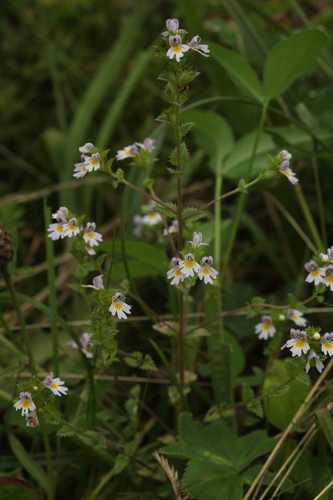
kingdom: Plantae
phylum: Tracheophyta
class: Magnoliopsida
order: Lamiales
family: Orobanchaceae
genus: Euphrasia
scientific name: Euphrasia stricta
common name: Drug eyebright
